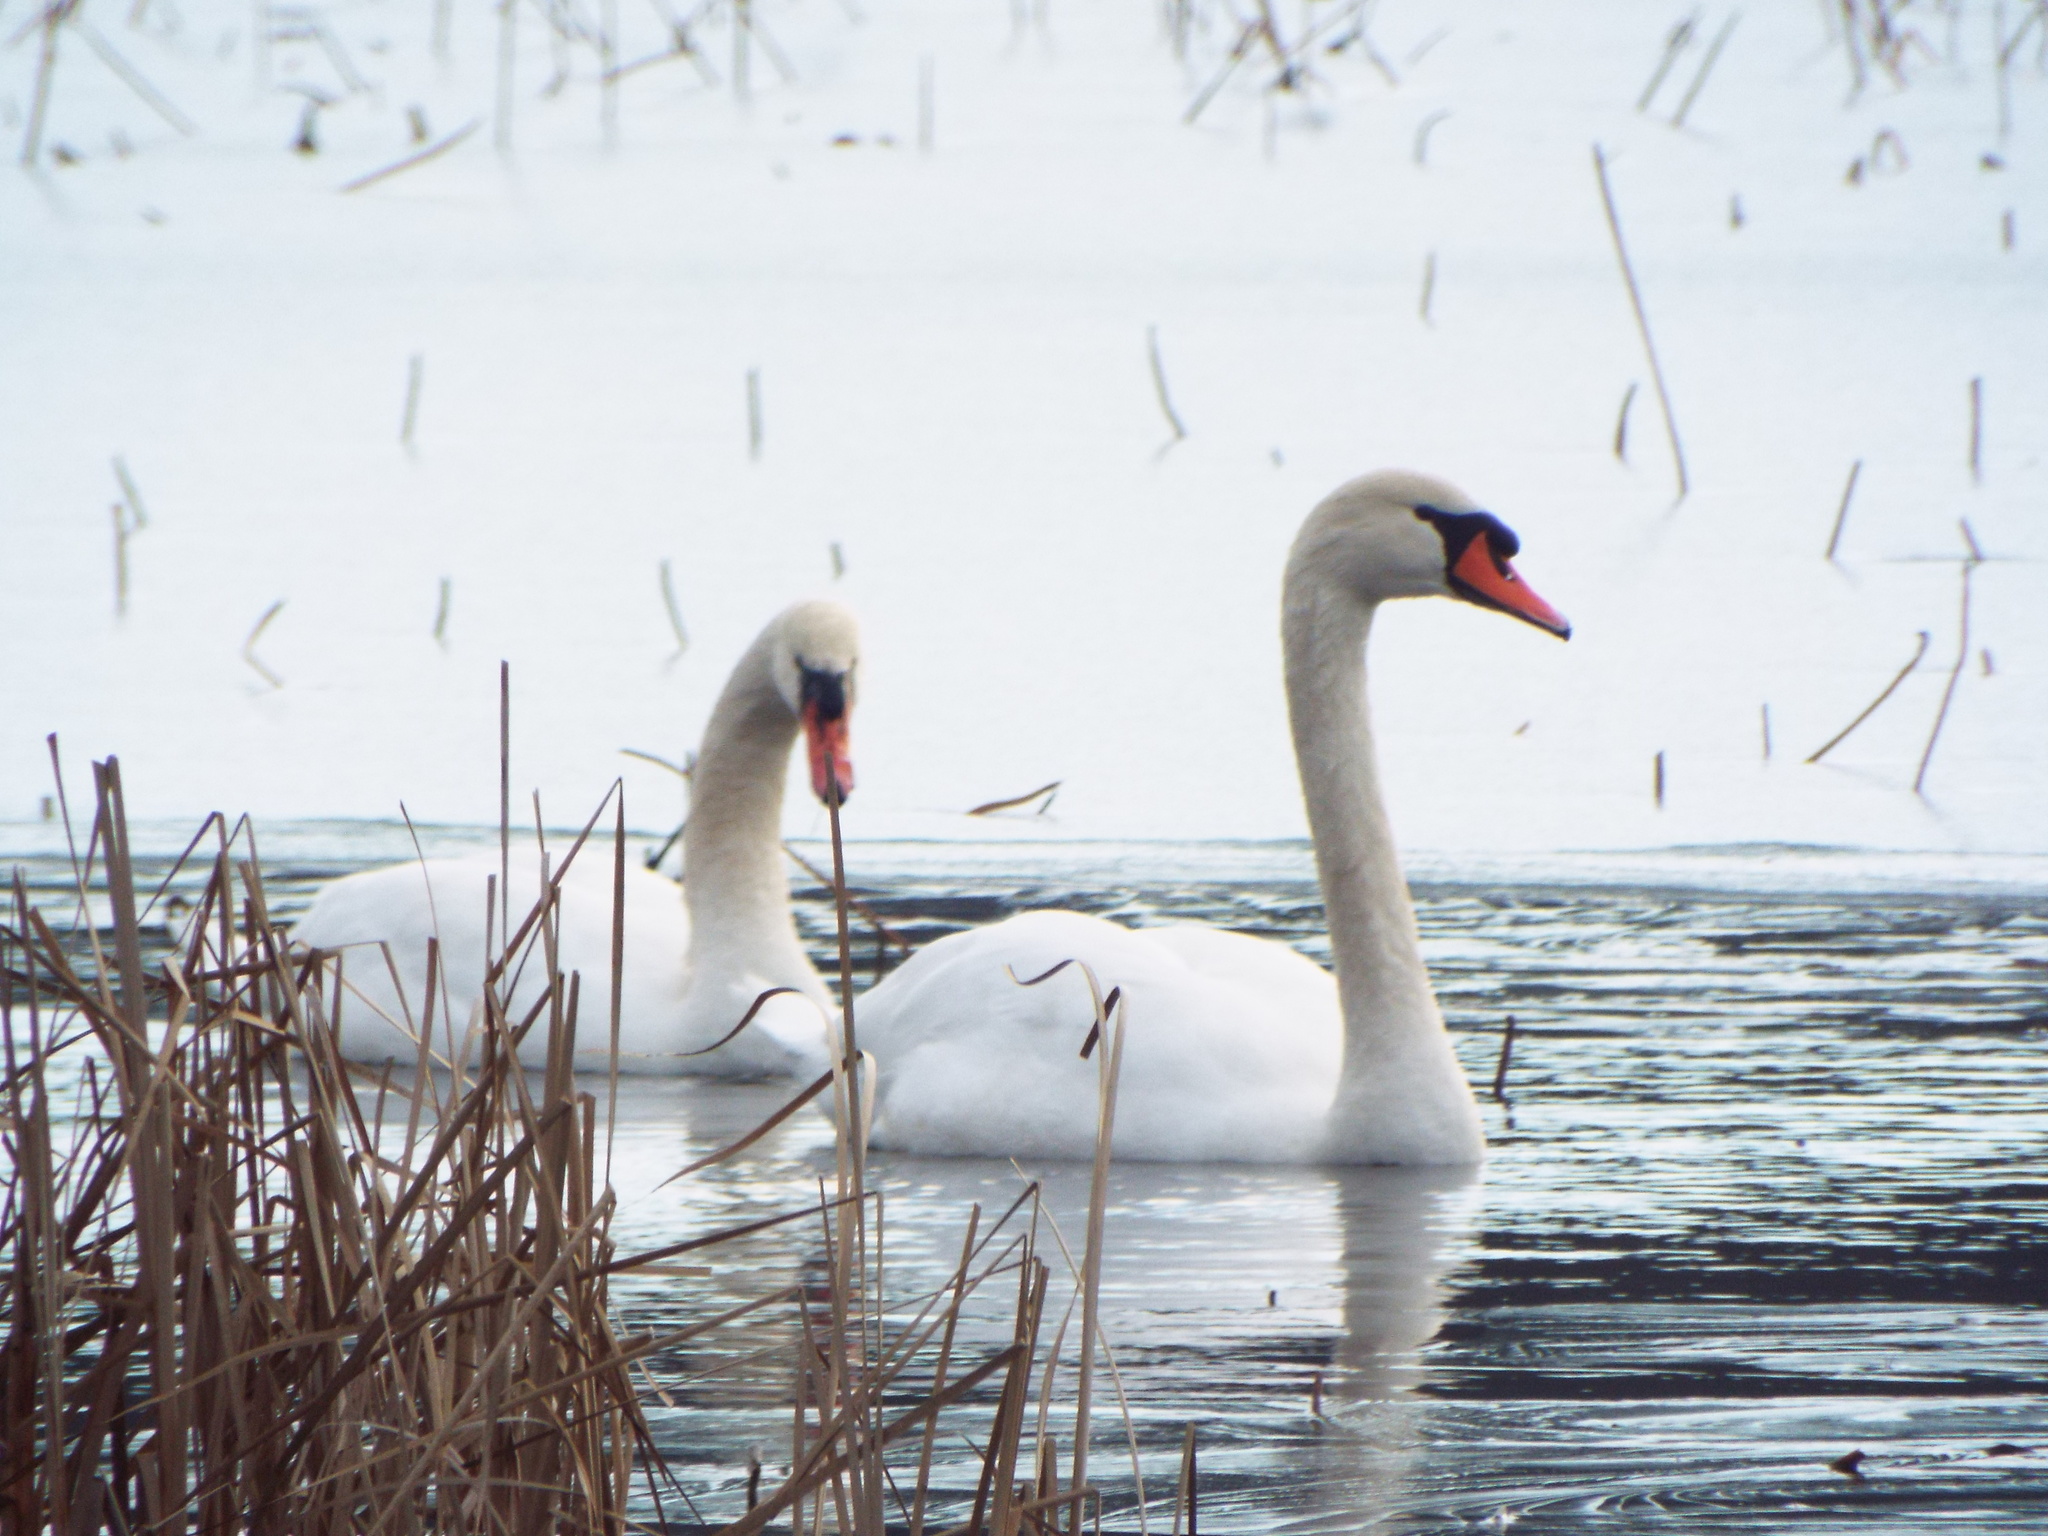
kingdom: Animalia
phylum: Chordata
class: Aves
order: Anseriformes
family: Anatidae
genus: Cygnus
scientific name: Cygnus olor
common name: Mute swan
